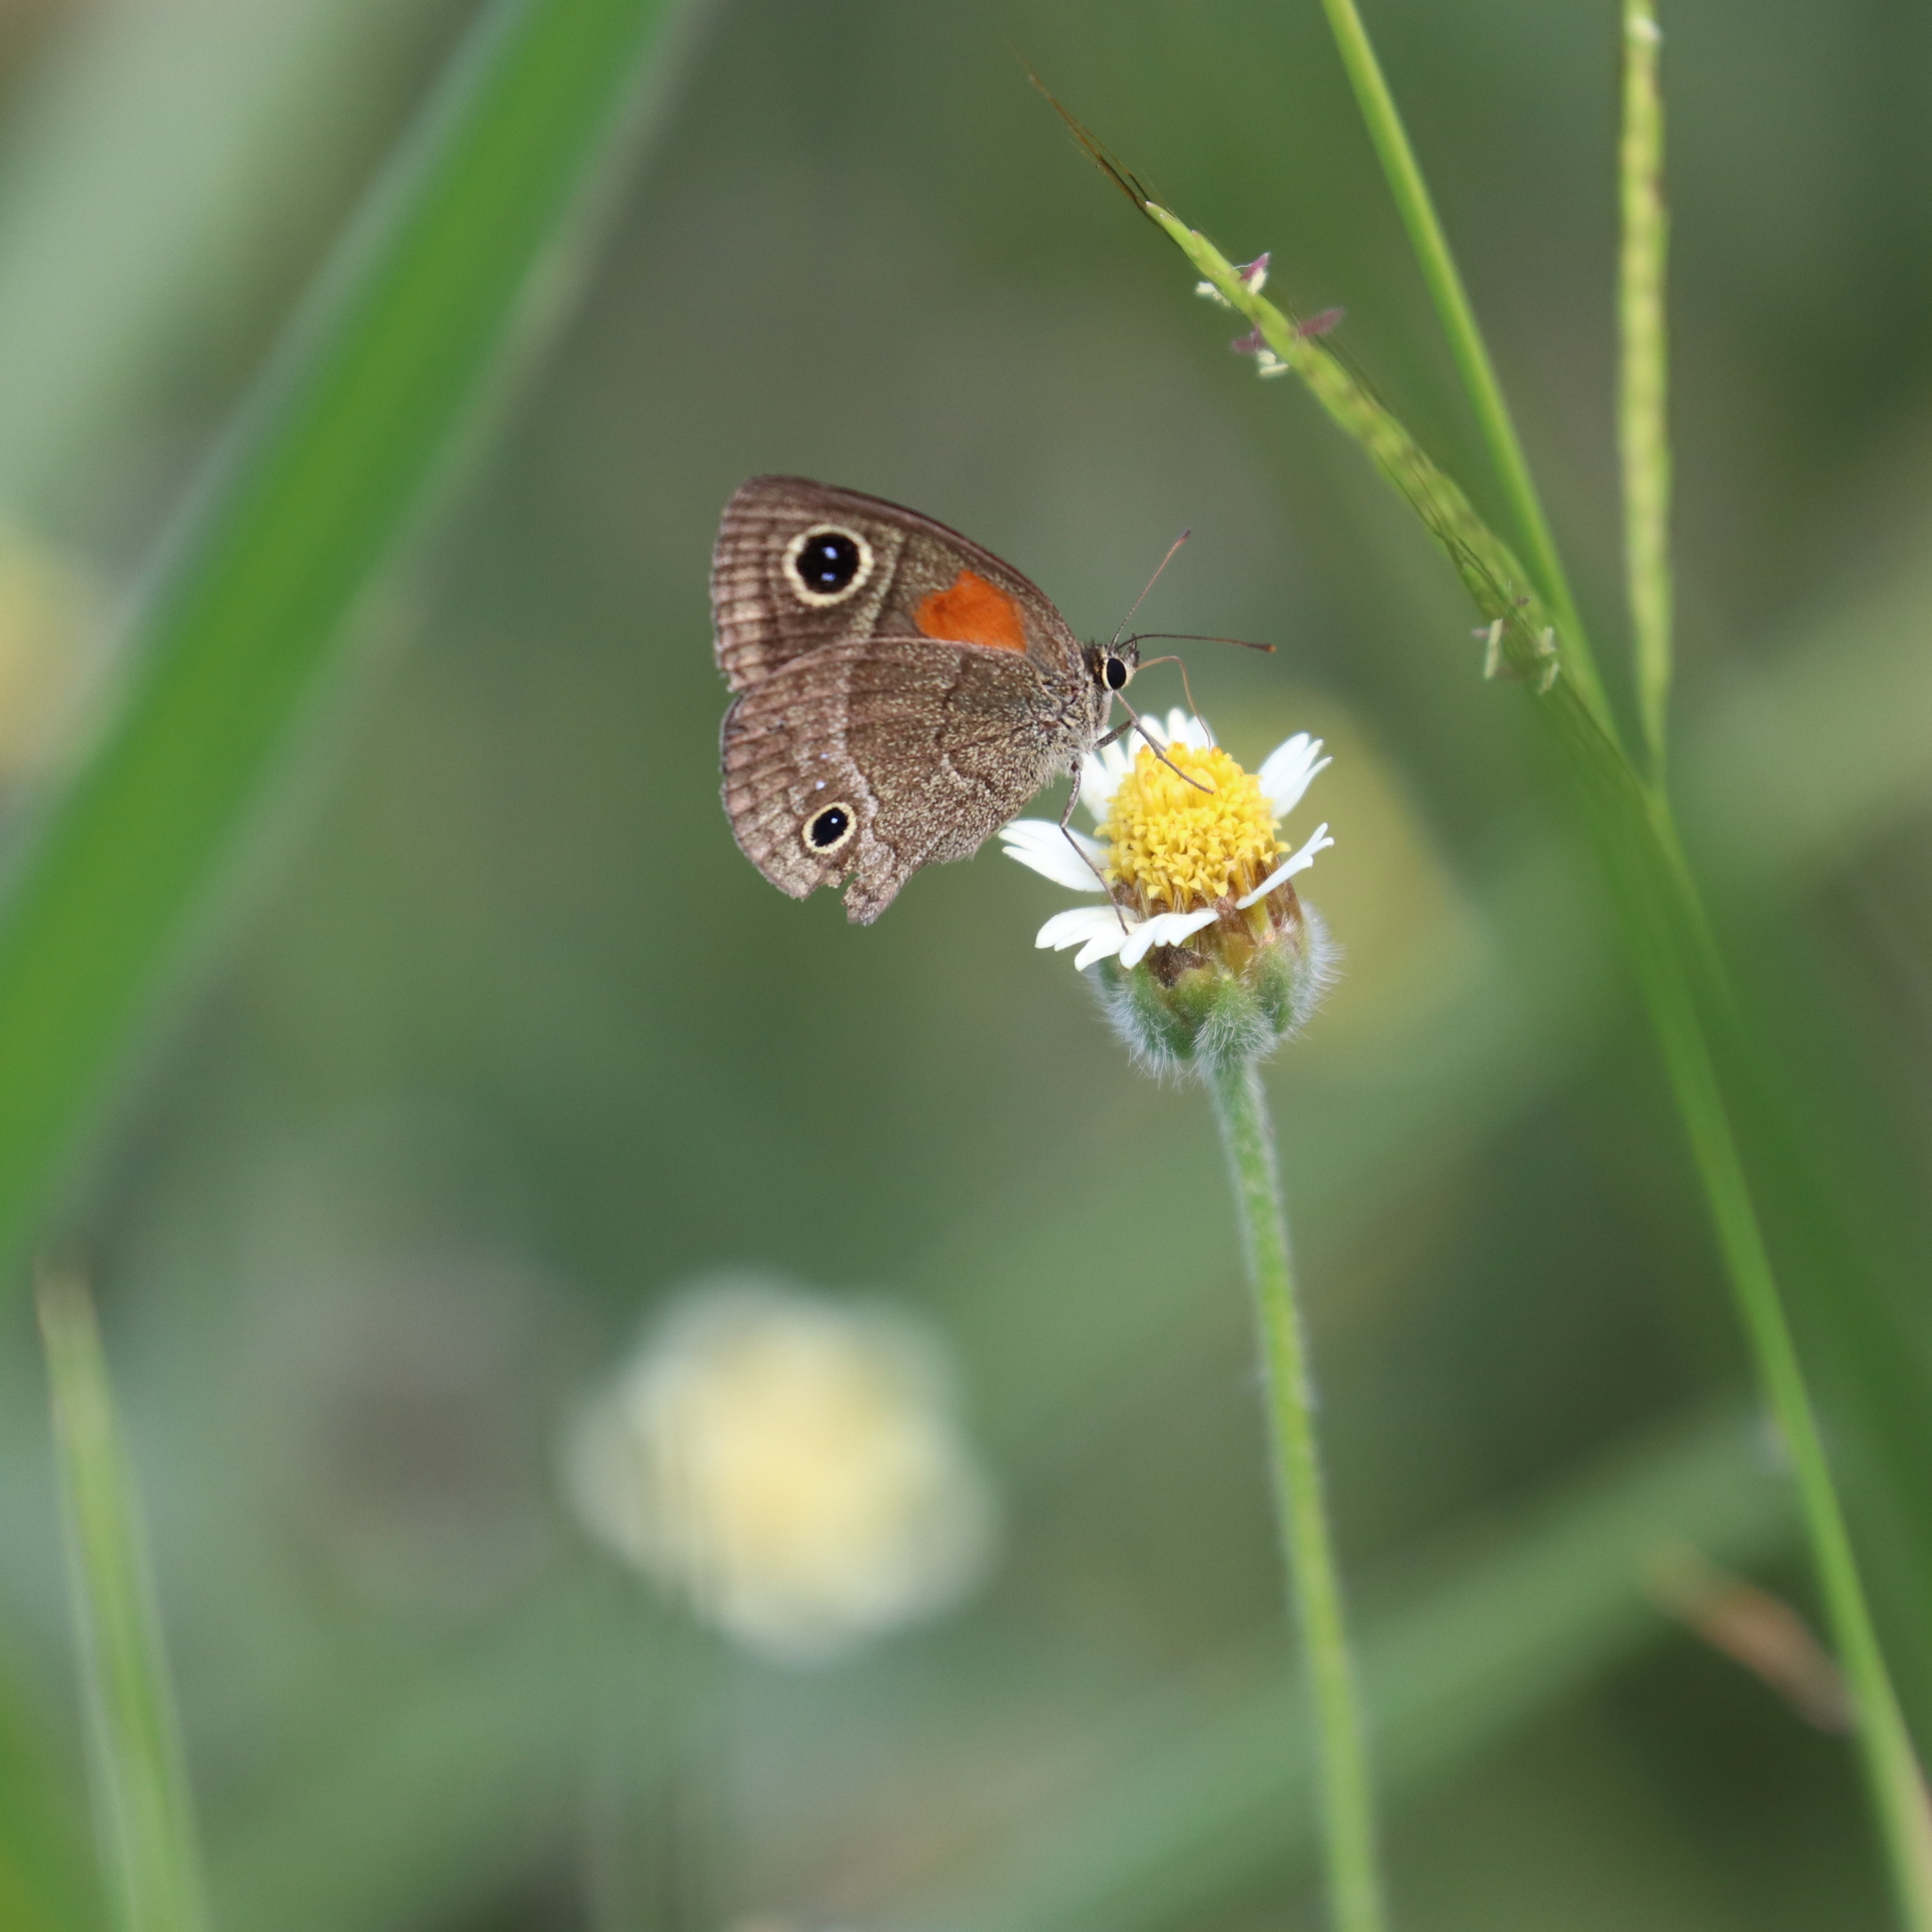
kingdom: Animalia
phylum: Arthropoda
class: Insecta
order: Lepidoptera
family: Nymphalidae
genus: Calisto
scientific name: Calisto obscura
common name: Obscure calisto
